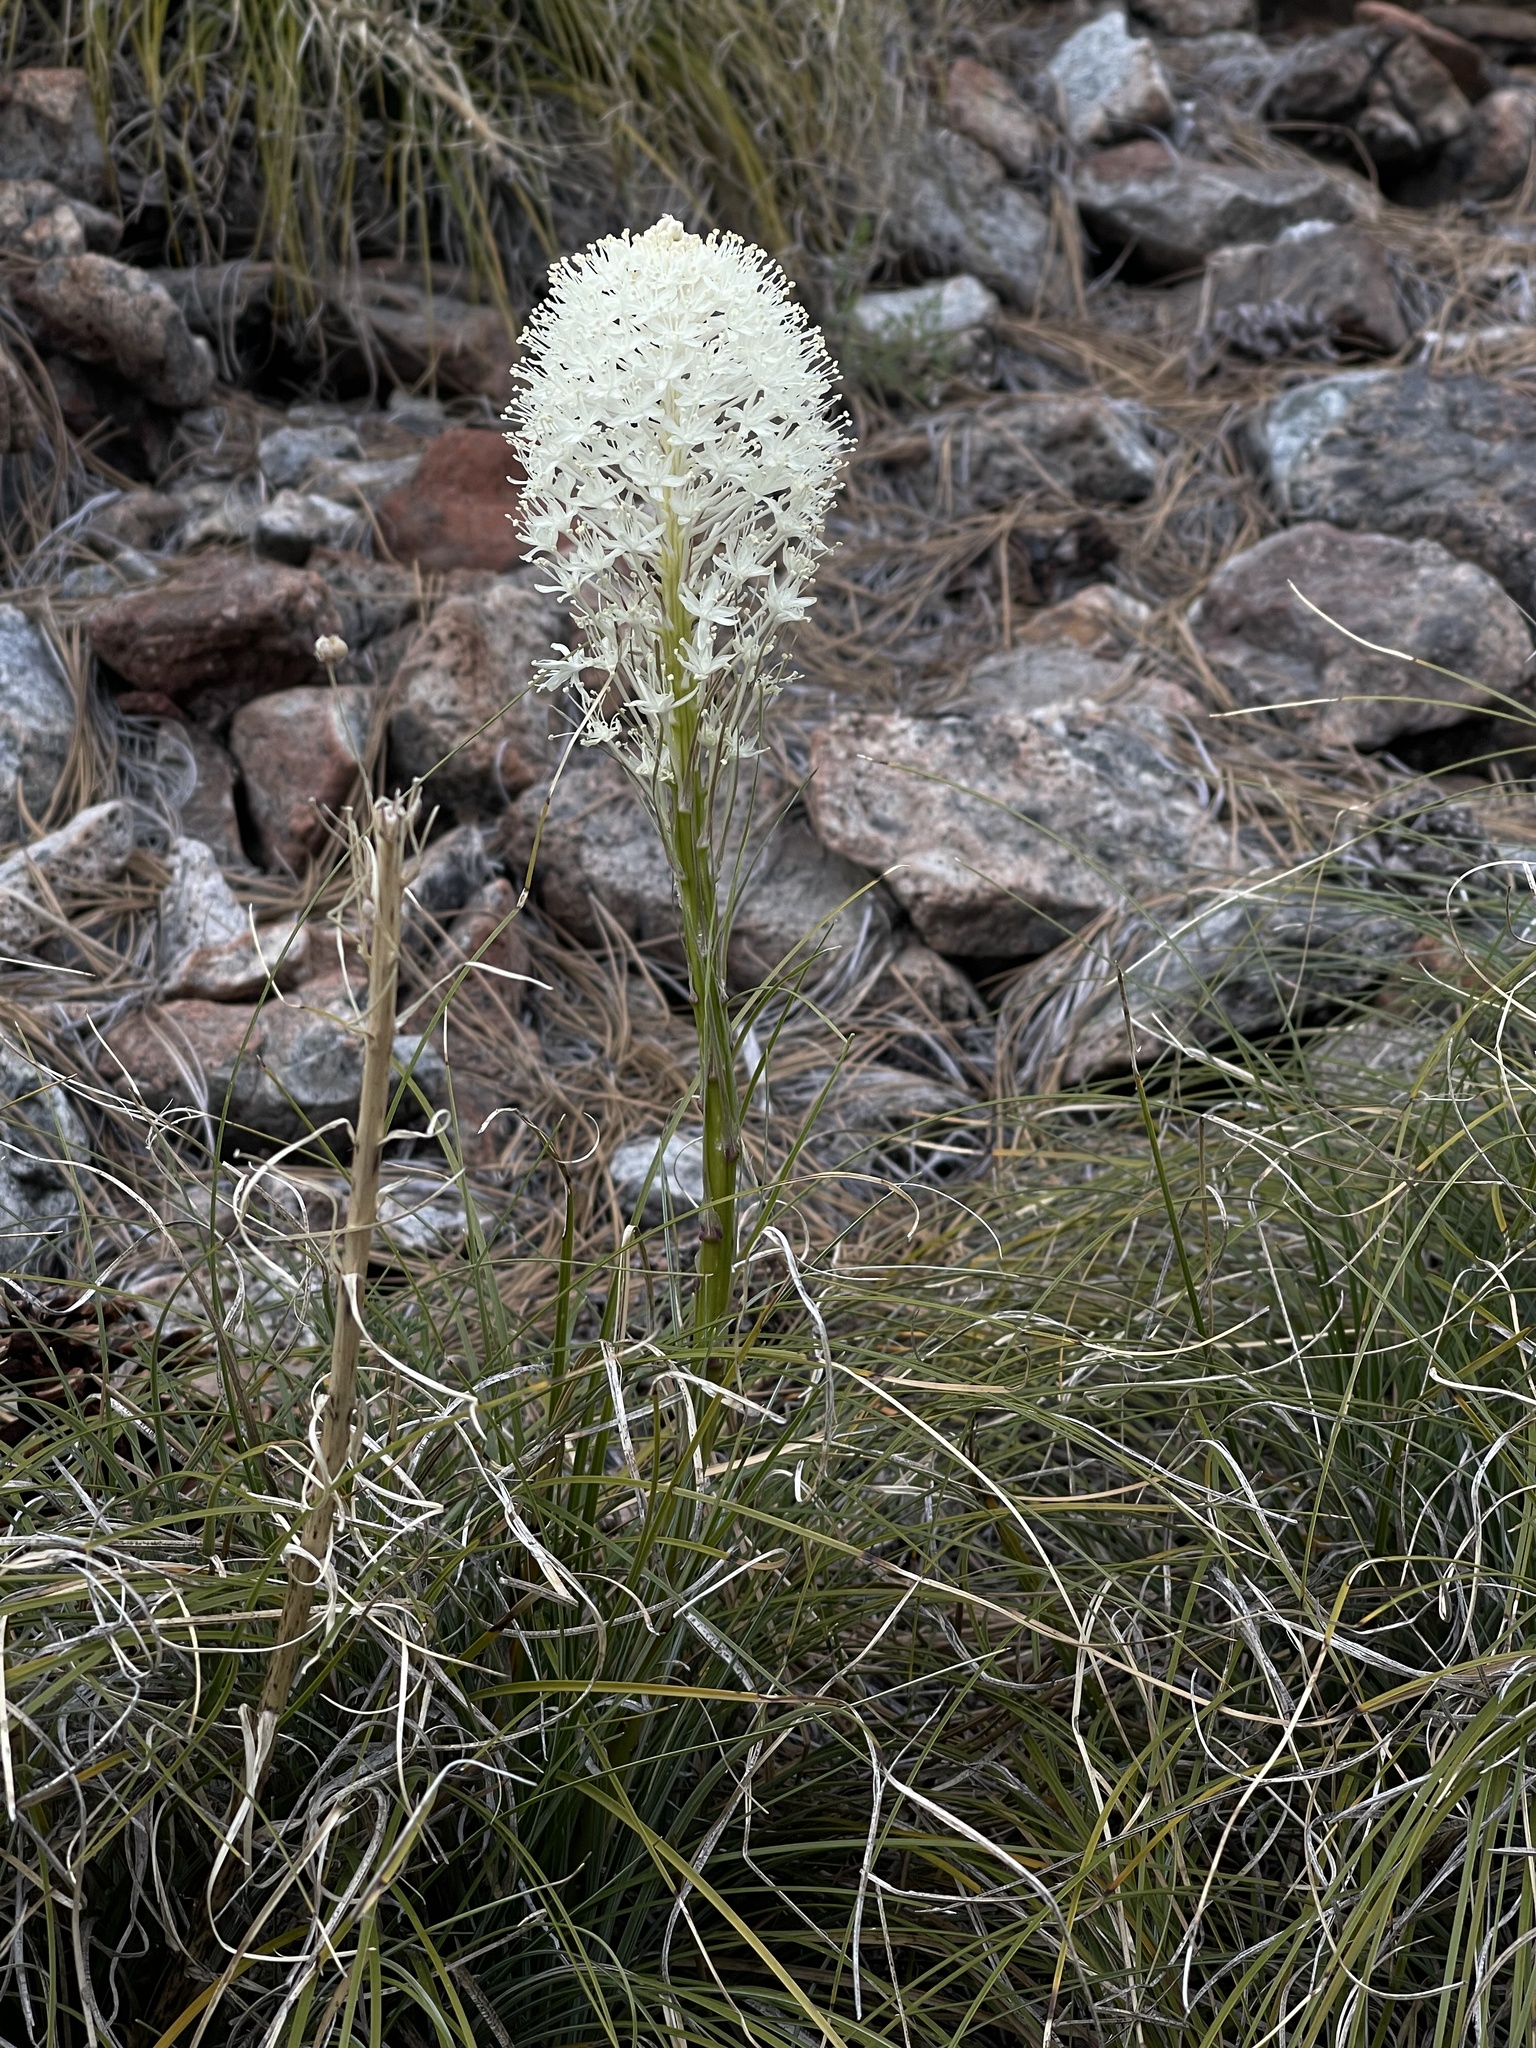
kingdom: Plantae
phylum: Tracheophyta
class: Liliopsida
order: Liliales
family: Melanthiaceae
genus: Xerophyllum
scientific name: Xerophyllum tenax
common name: Bear-grass
